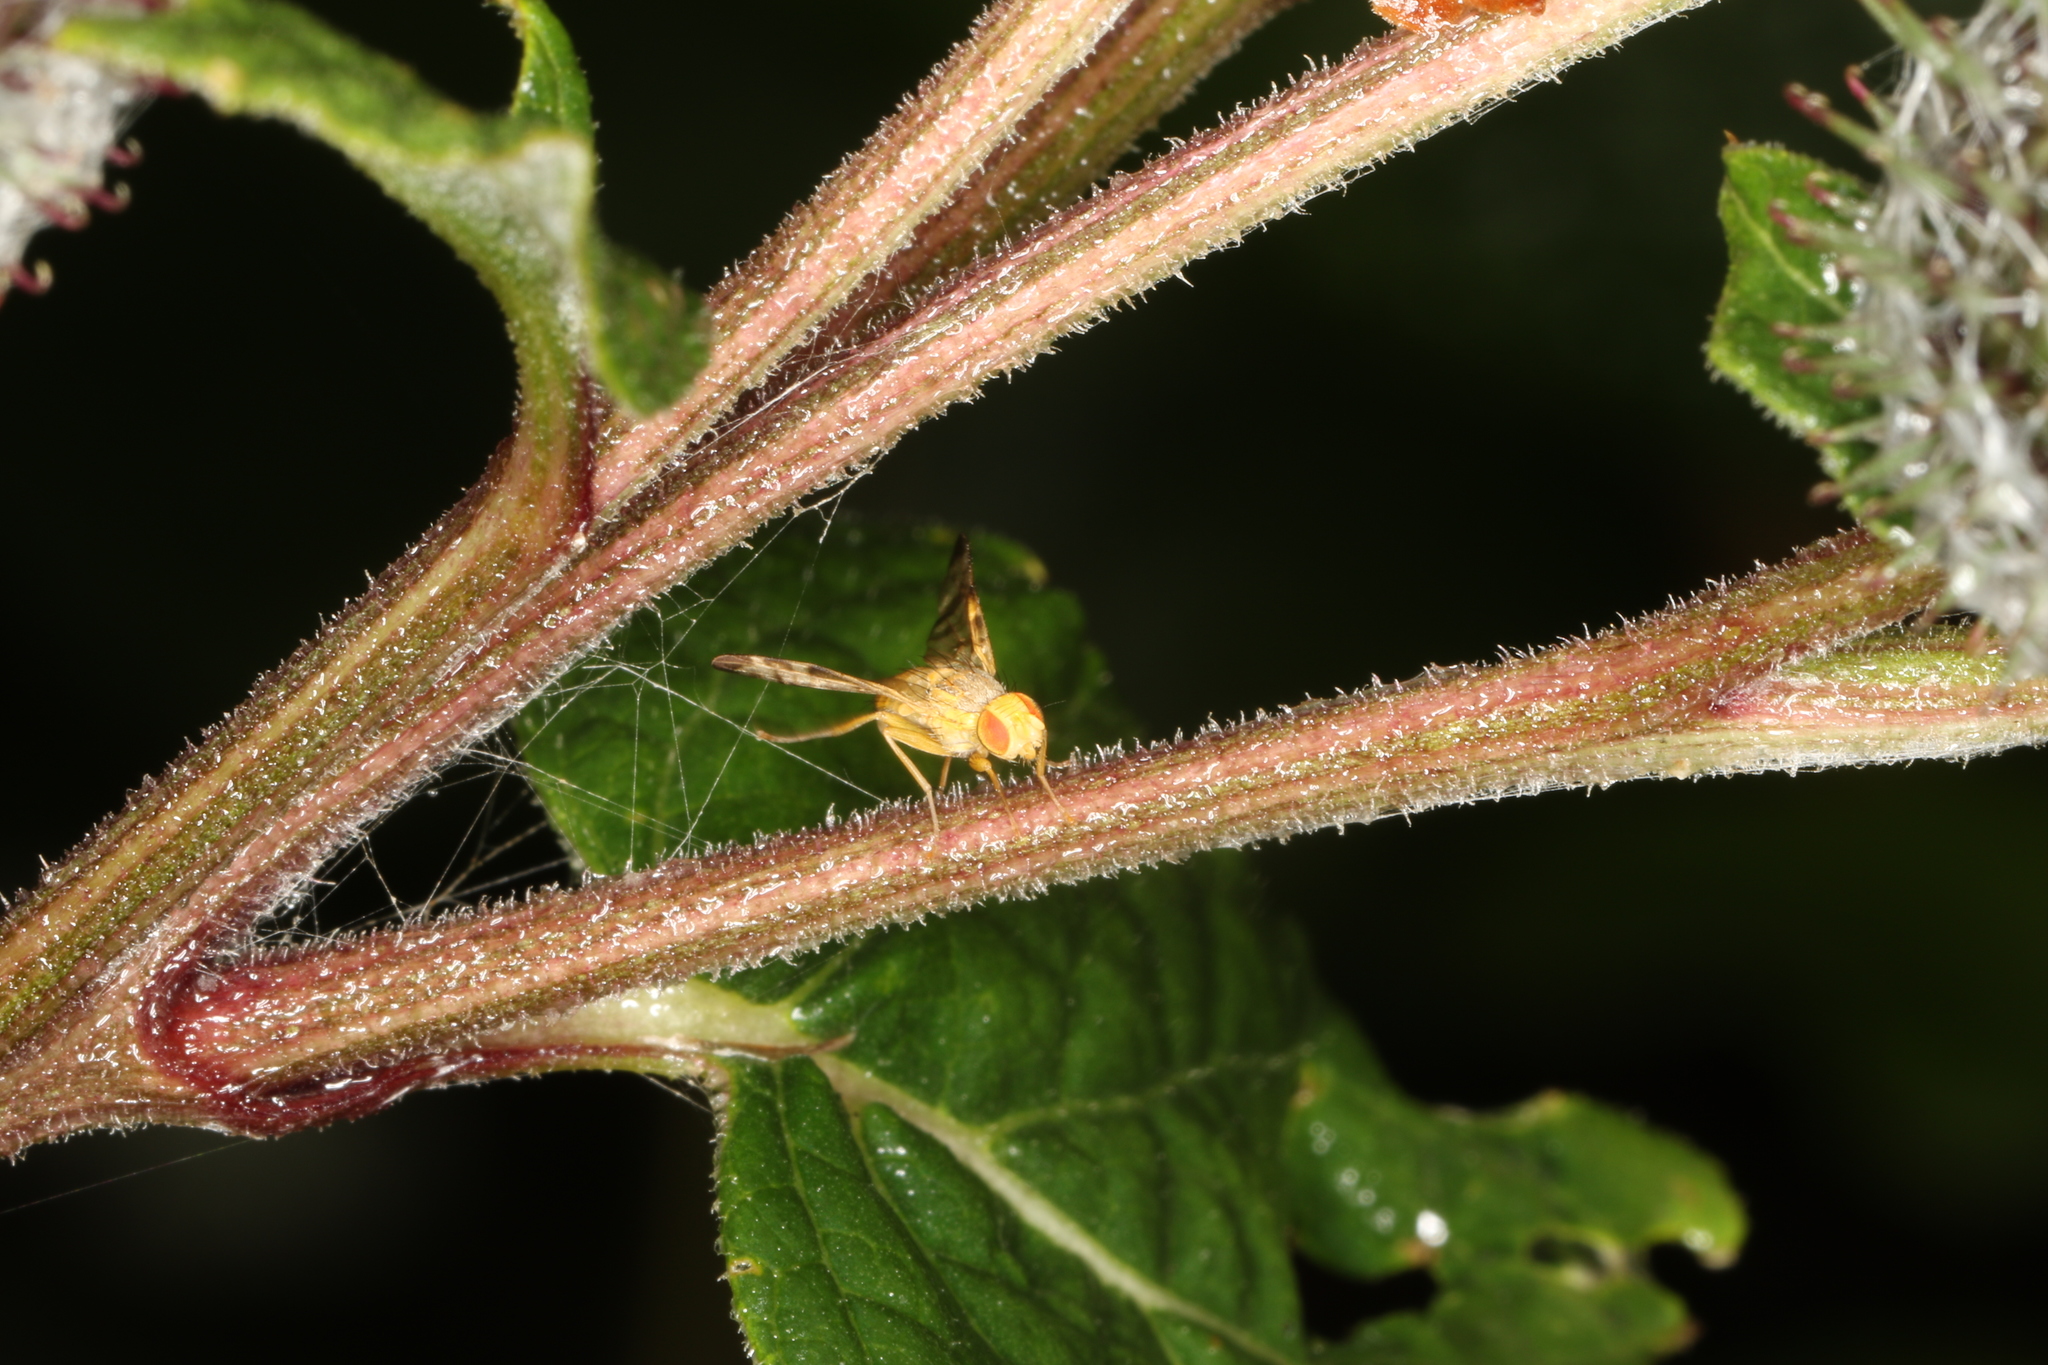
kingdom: Animalia
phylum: Arthropoda
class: Insecta
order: Diptera
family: Tephritidae
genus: Terellia
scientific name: Terellia tussilaginis
